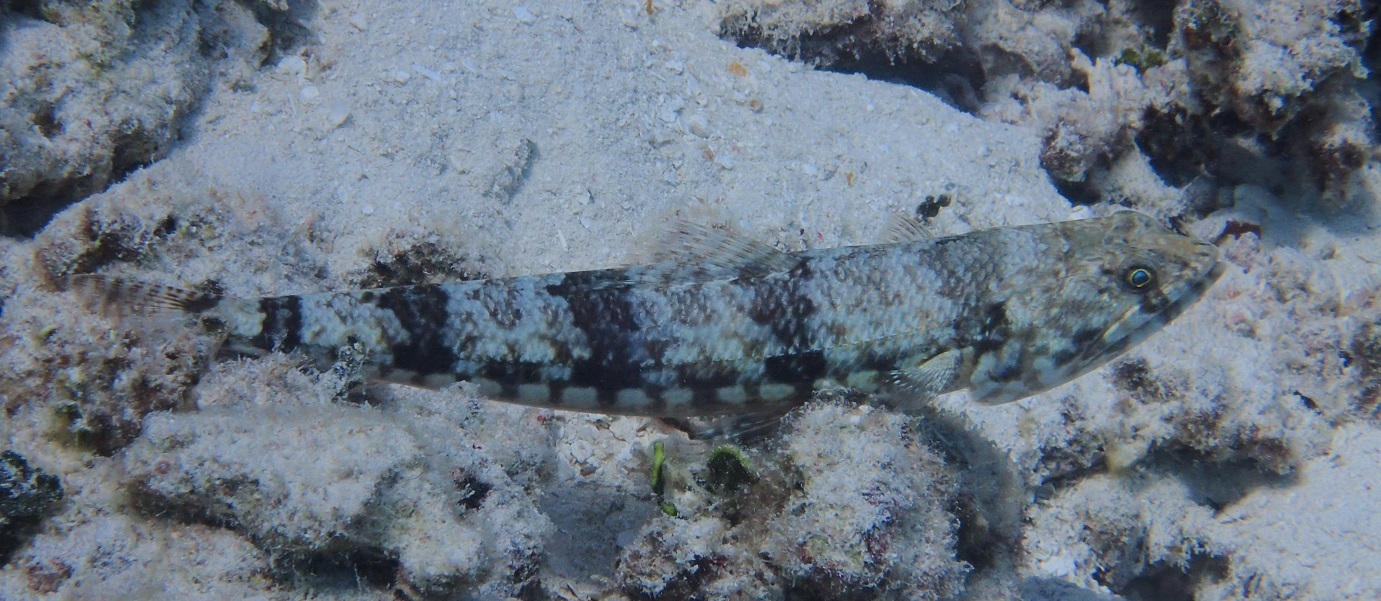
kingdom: Animalia
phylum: Chordata
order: Aulopiformes
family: Synodontidae
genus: Synodus
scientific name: Synodus variegatus
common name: Variegated lizardfish
